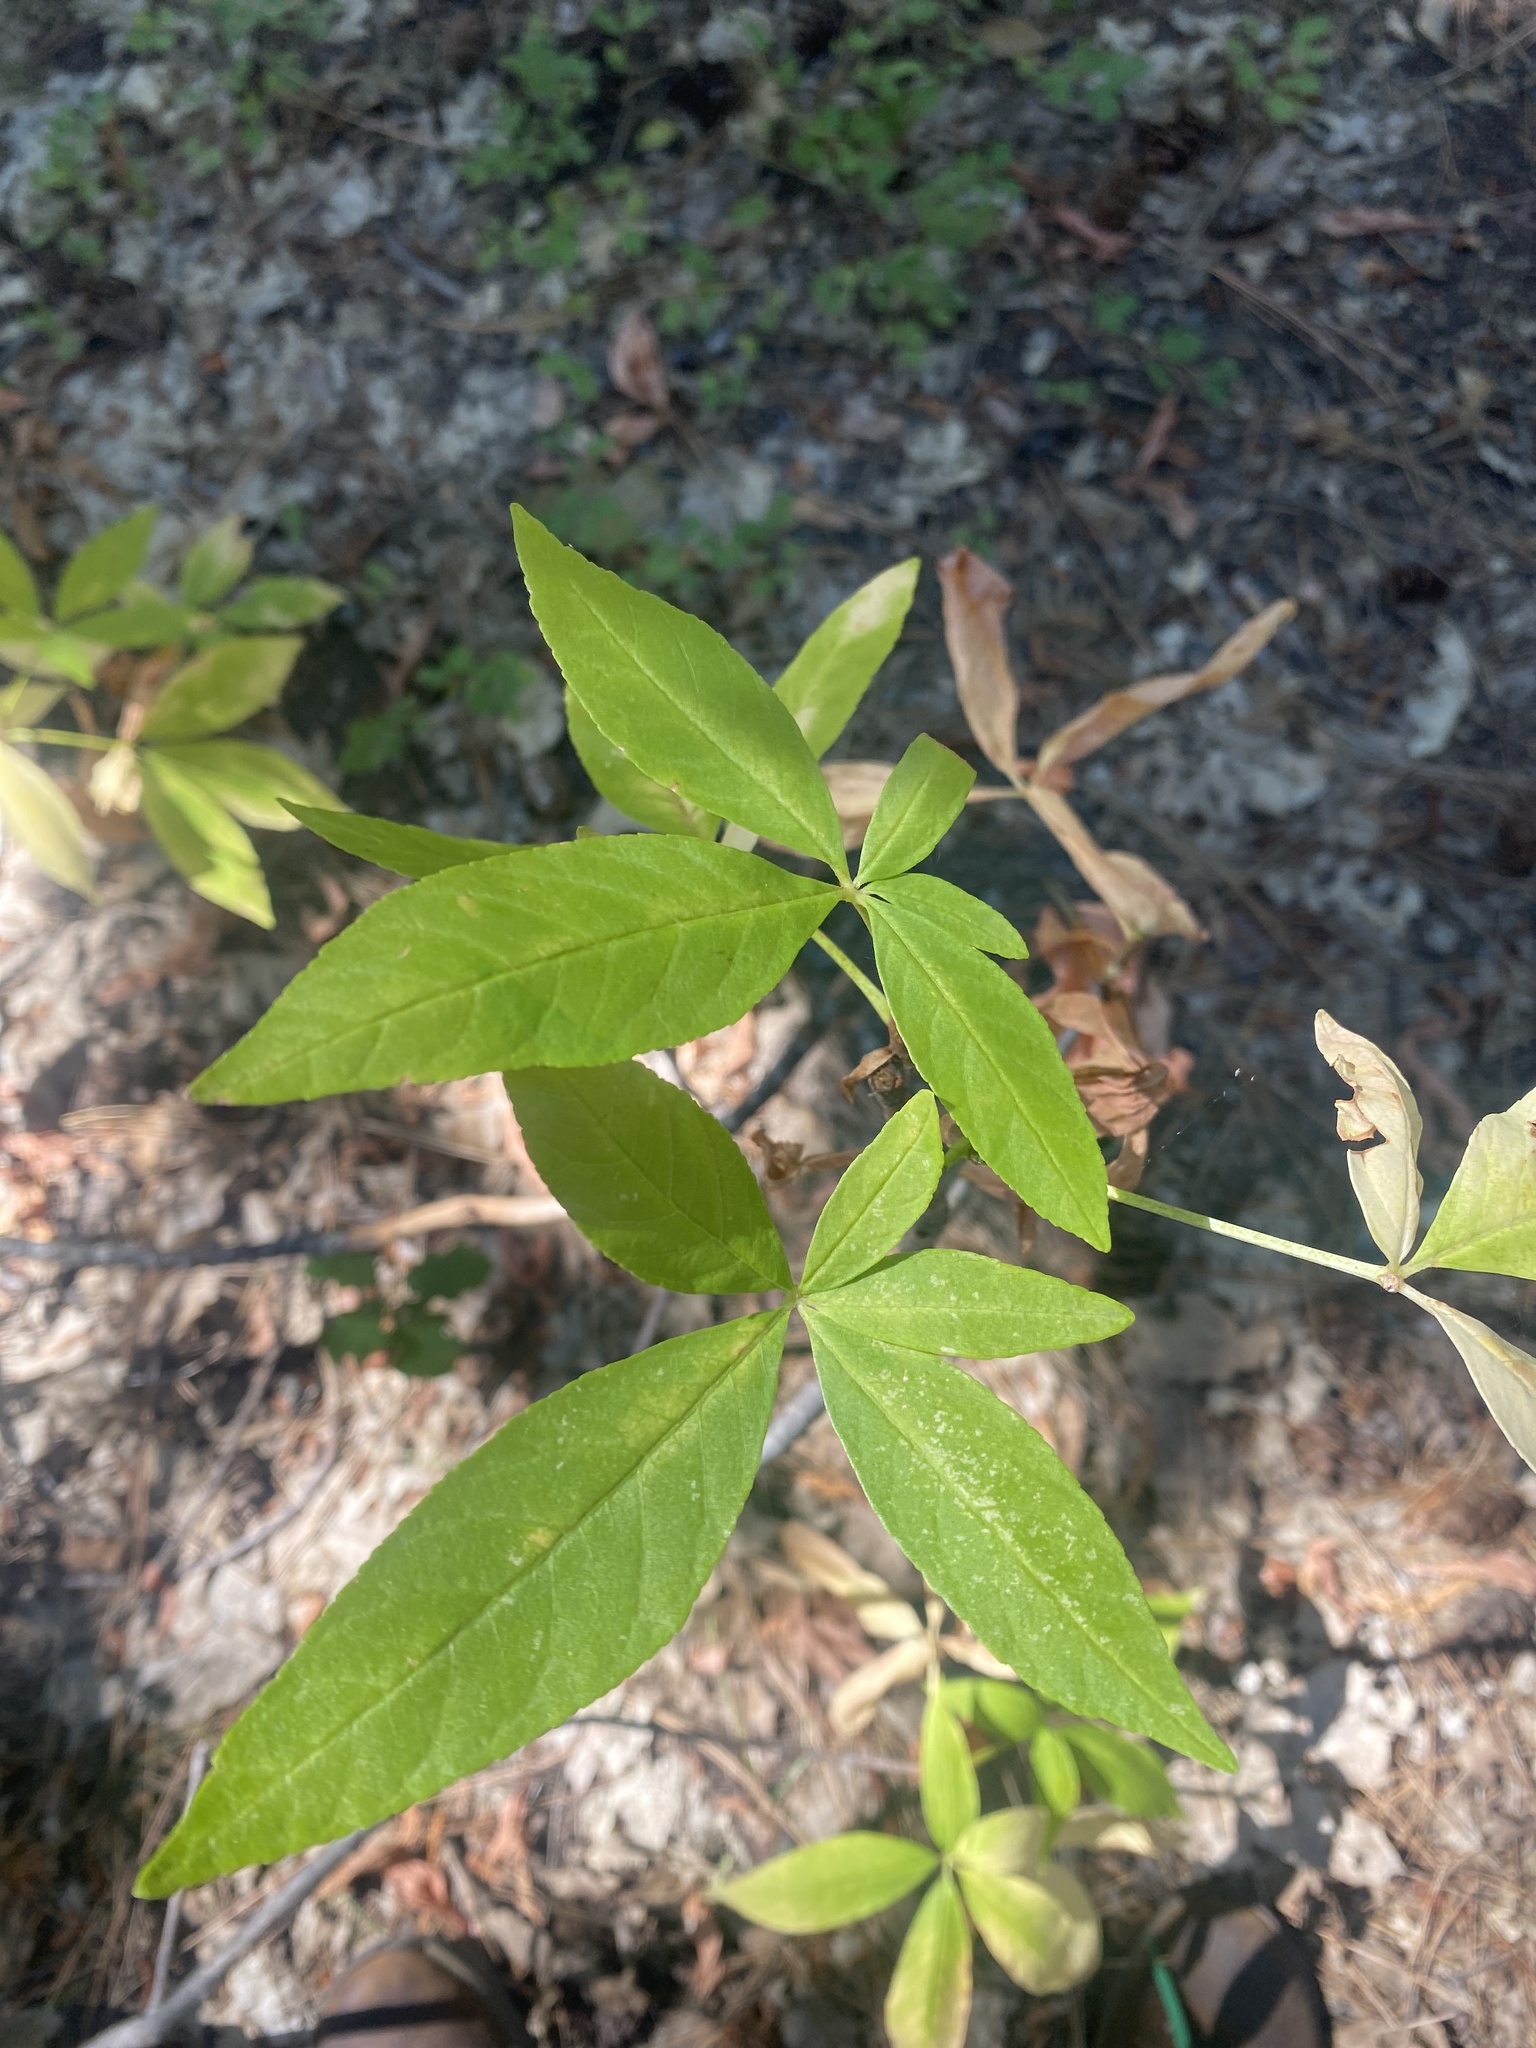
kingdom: Plantae
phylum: Tracheophyta
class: Magnoliopsida
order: Sapindales
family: Sapindaceae
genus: Aesculus
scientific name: Aesculus californica
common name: California buckeye
